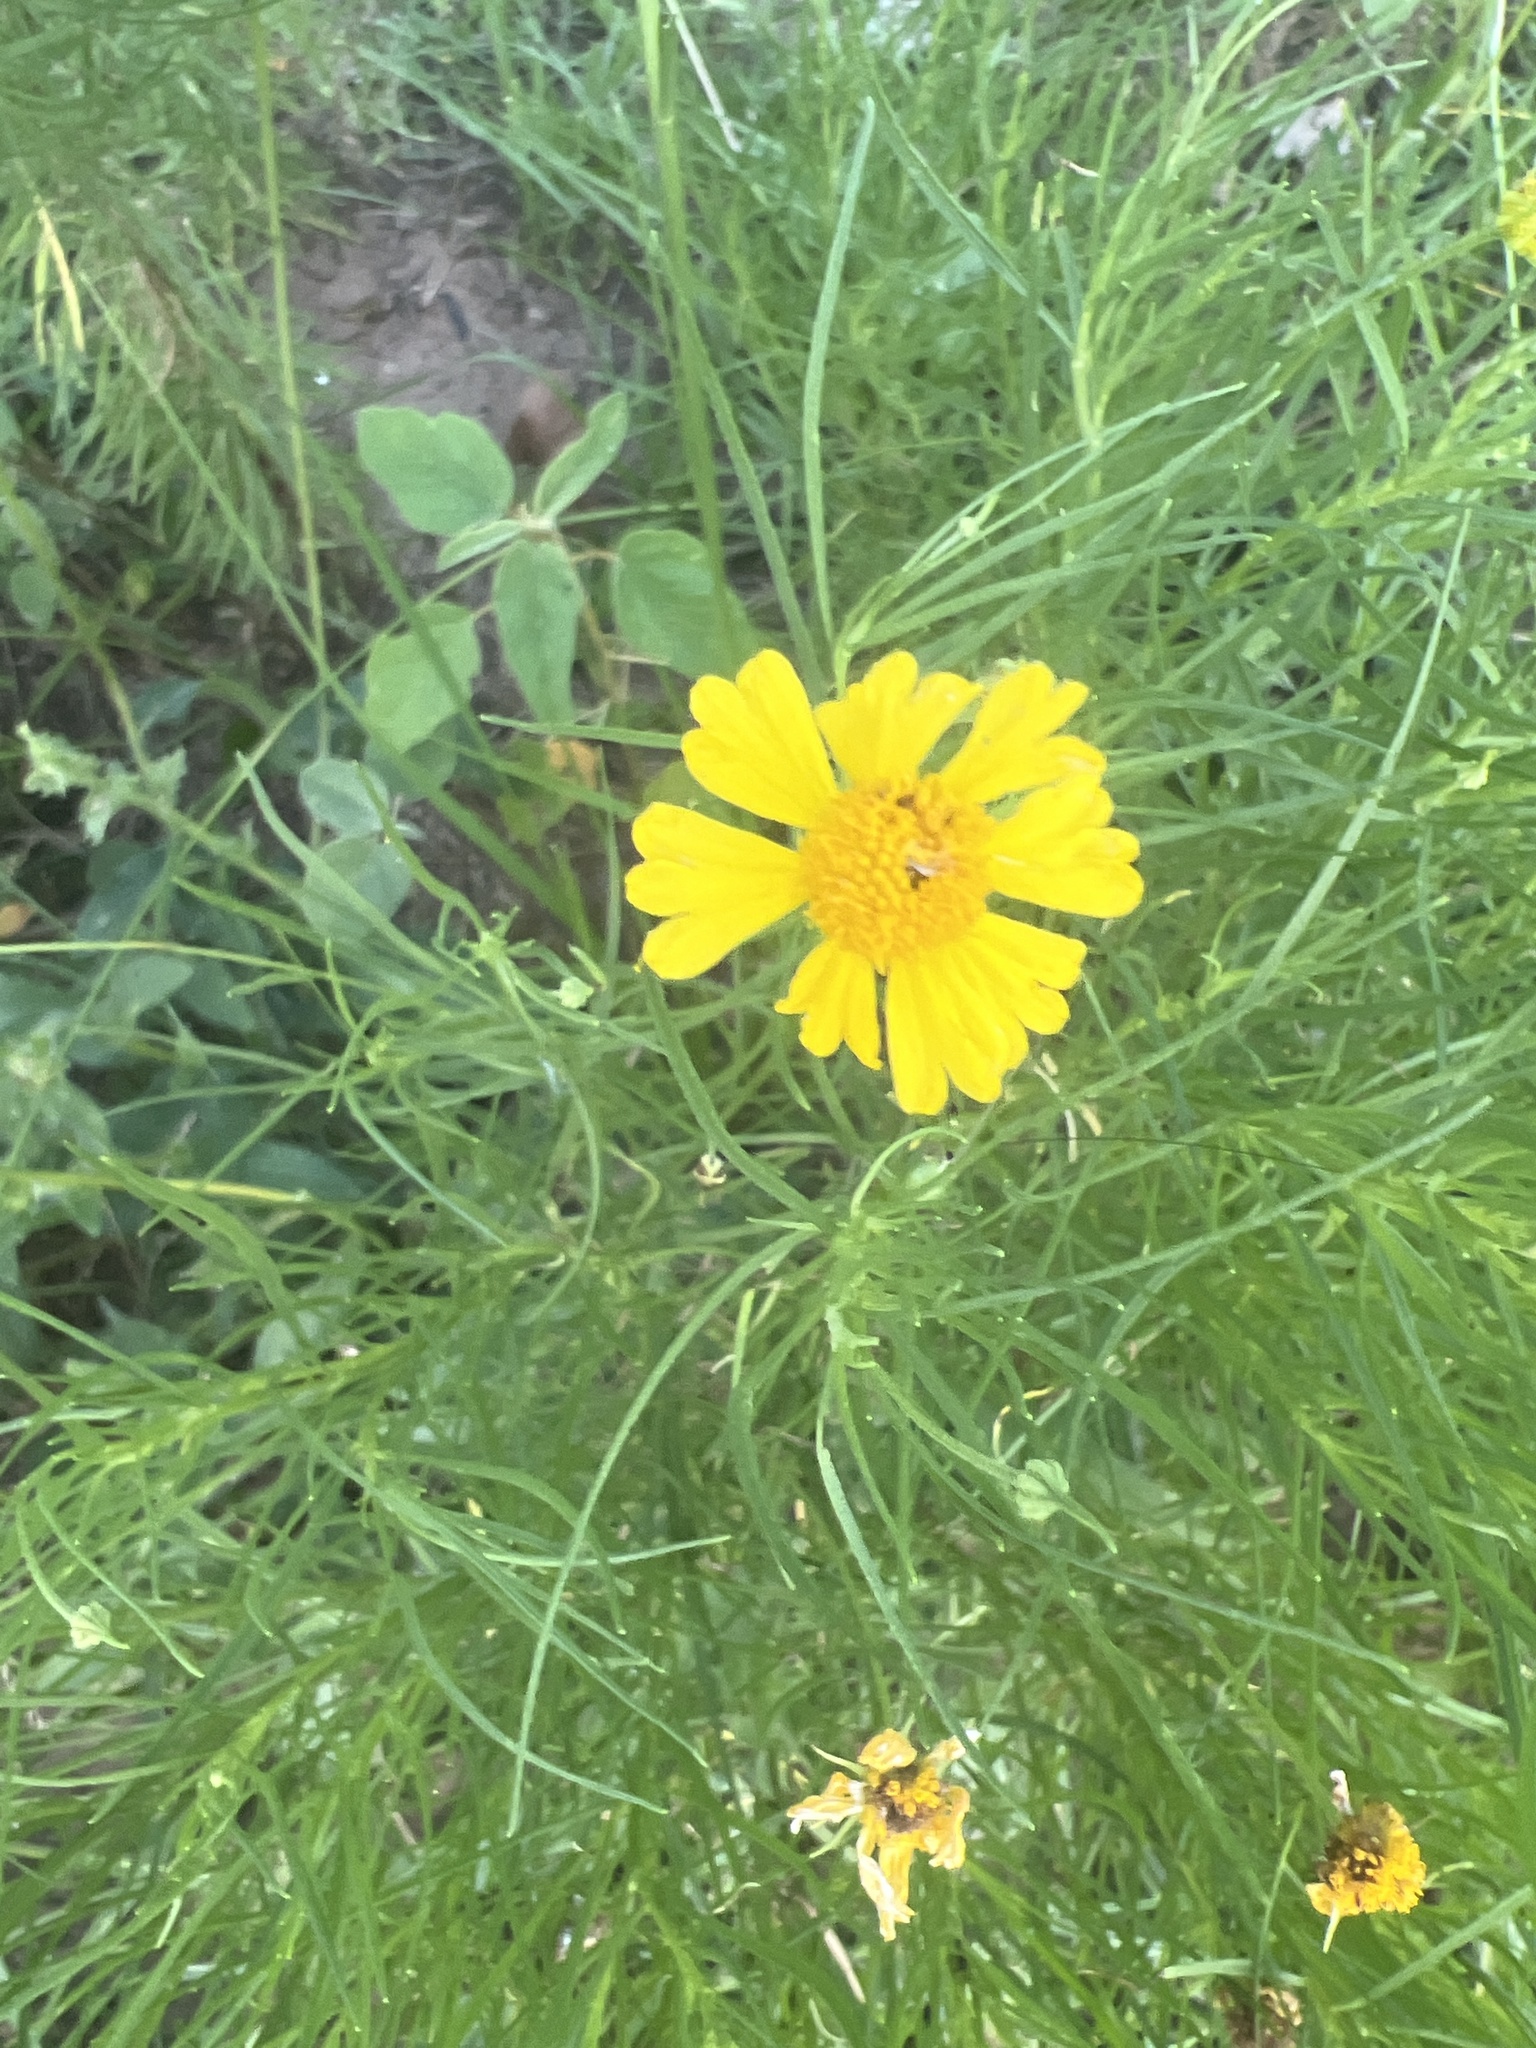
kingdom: Plantae
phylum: Tracheophyta
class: Magnoliopsida
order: Asterales
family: Asteraceae
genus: Helenium
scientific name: Helenium amarum
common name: Bitter sneezeweed
